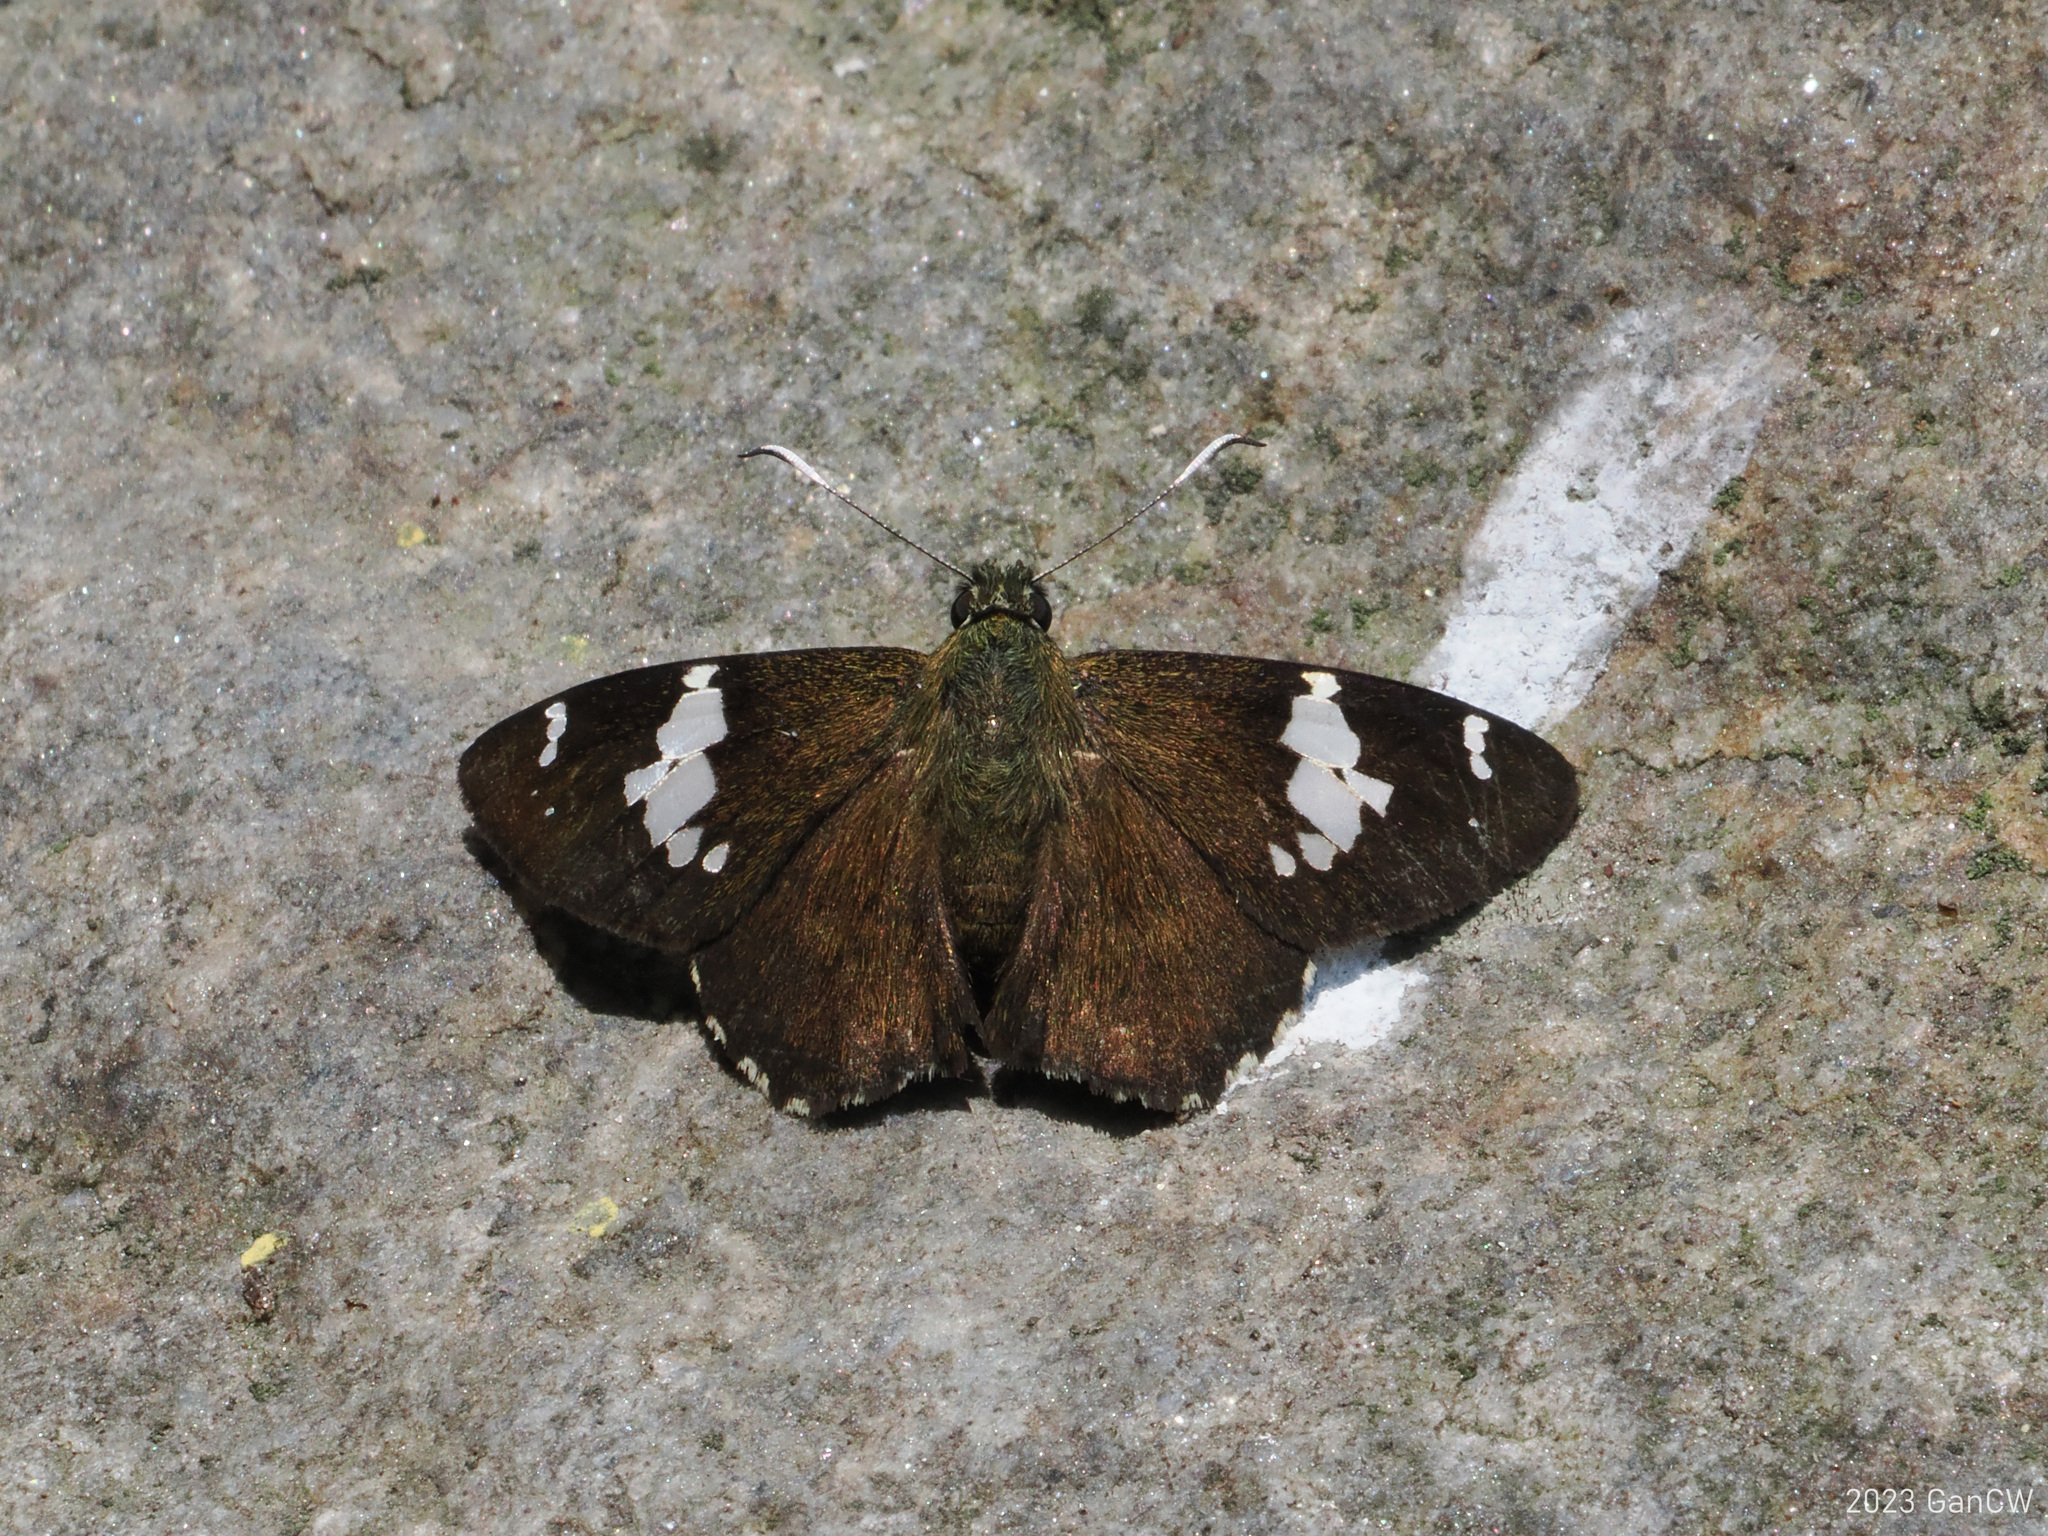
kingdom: Animalia
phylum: Arthropoda
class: Insecta
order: Lepidoptera
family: Hesperiidae
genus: Celaenorrhinus
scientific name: Celaenorrhinus munda
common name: Himalayan spotted flat
